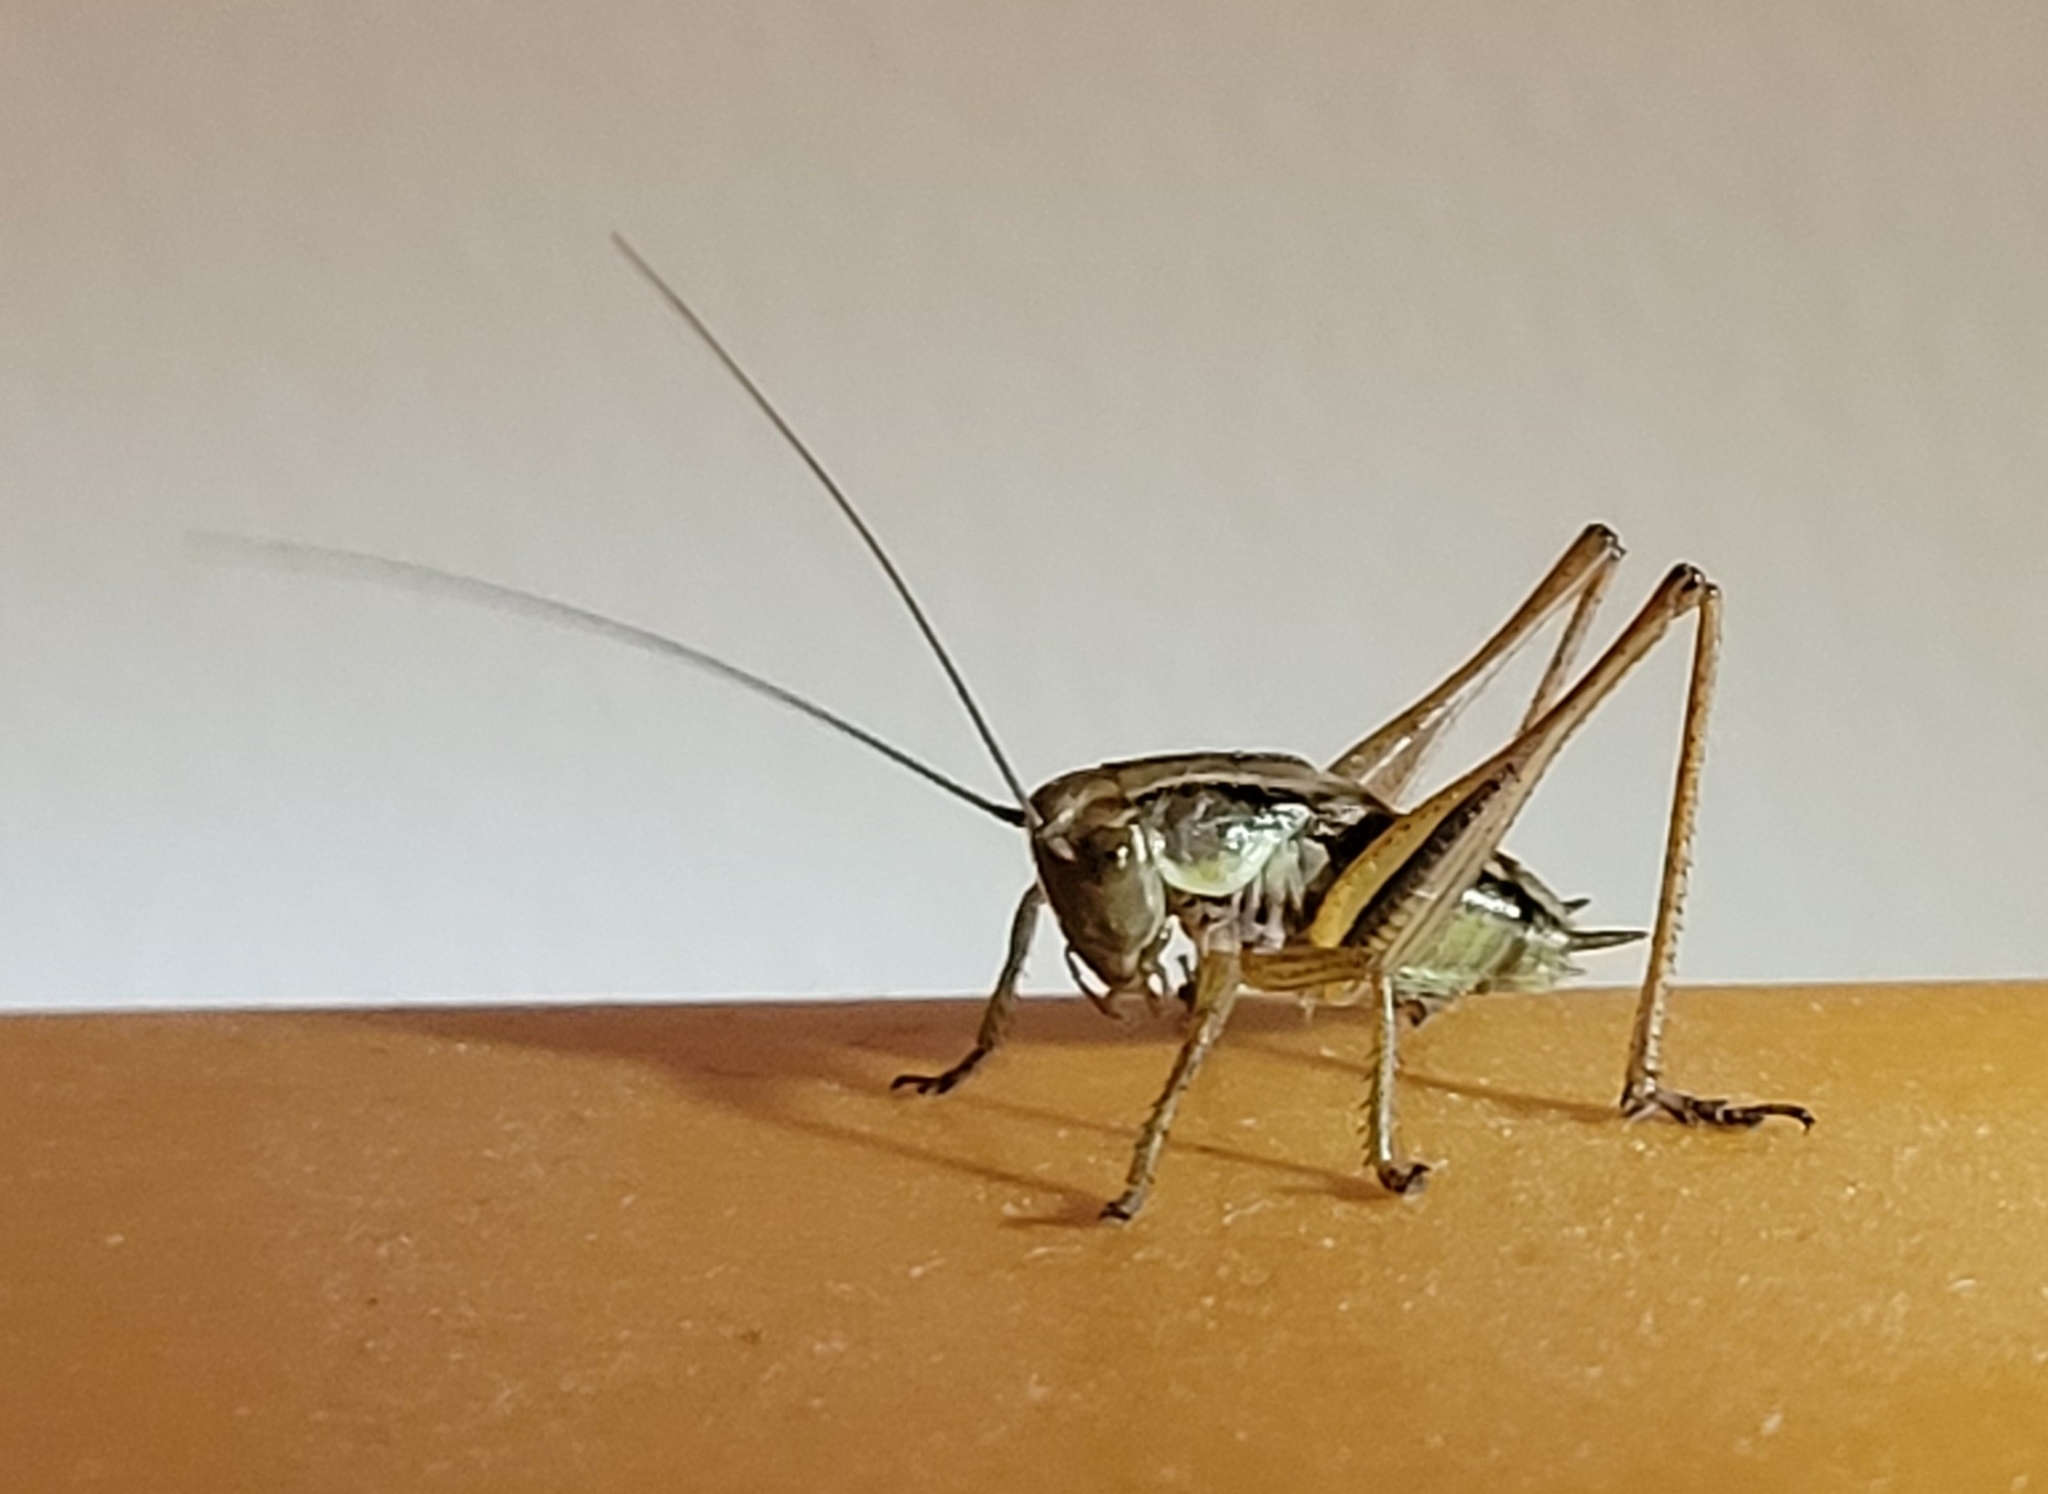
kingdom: Animalia
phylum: Arthropoda
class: Insecta
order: Orthoptera
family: Tettigoniidae
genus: Roeseliana
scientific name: Roeseliana roeselii
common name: Roesel's bush cricket
